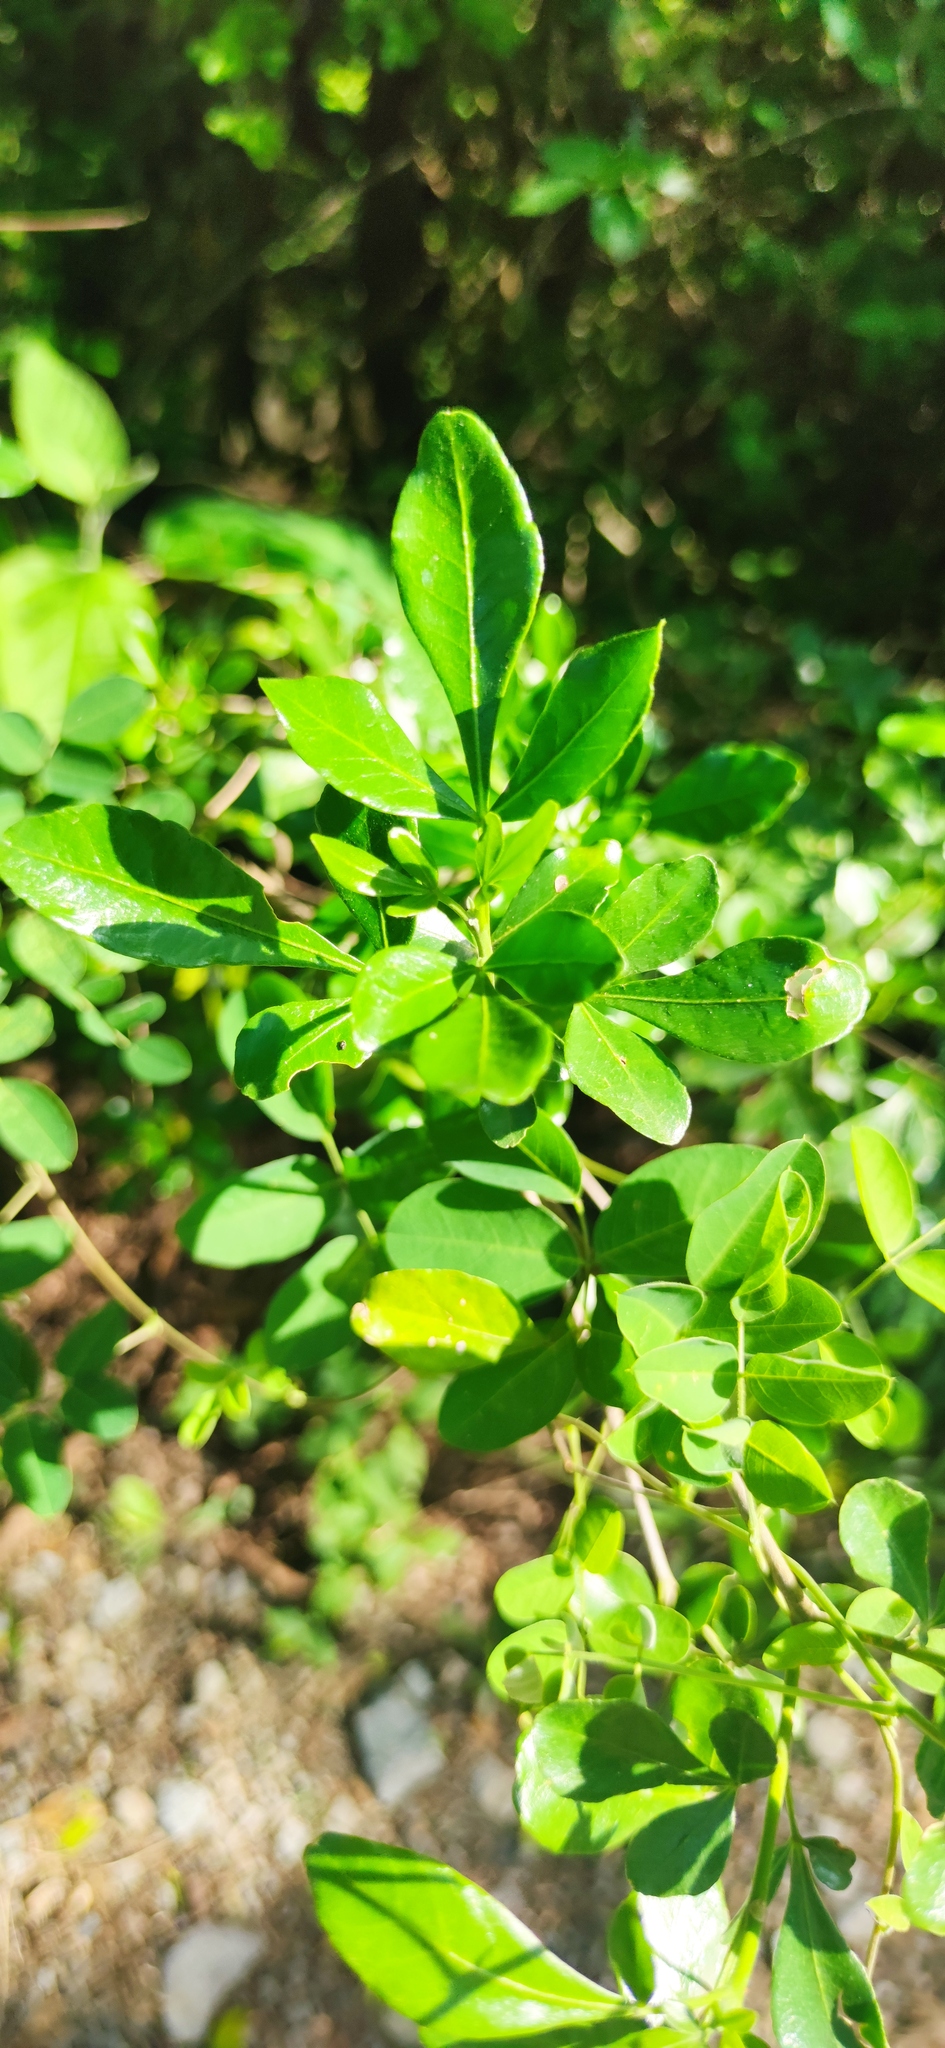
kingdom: Plantae
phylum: Tracheophyta
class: Magnoliopsida
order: Sapindales
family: Rutaceae
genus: Helietta
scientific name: Helietta parvifolia
